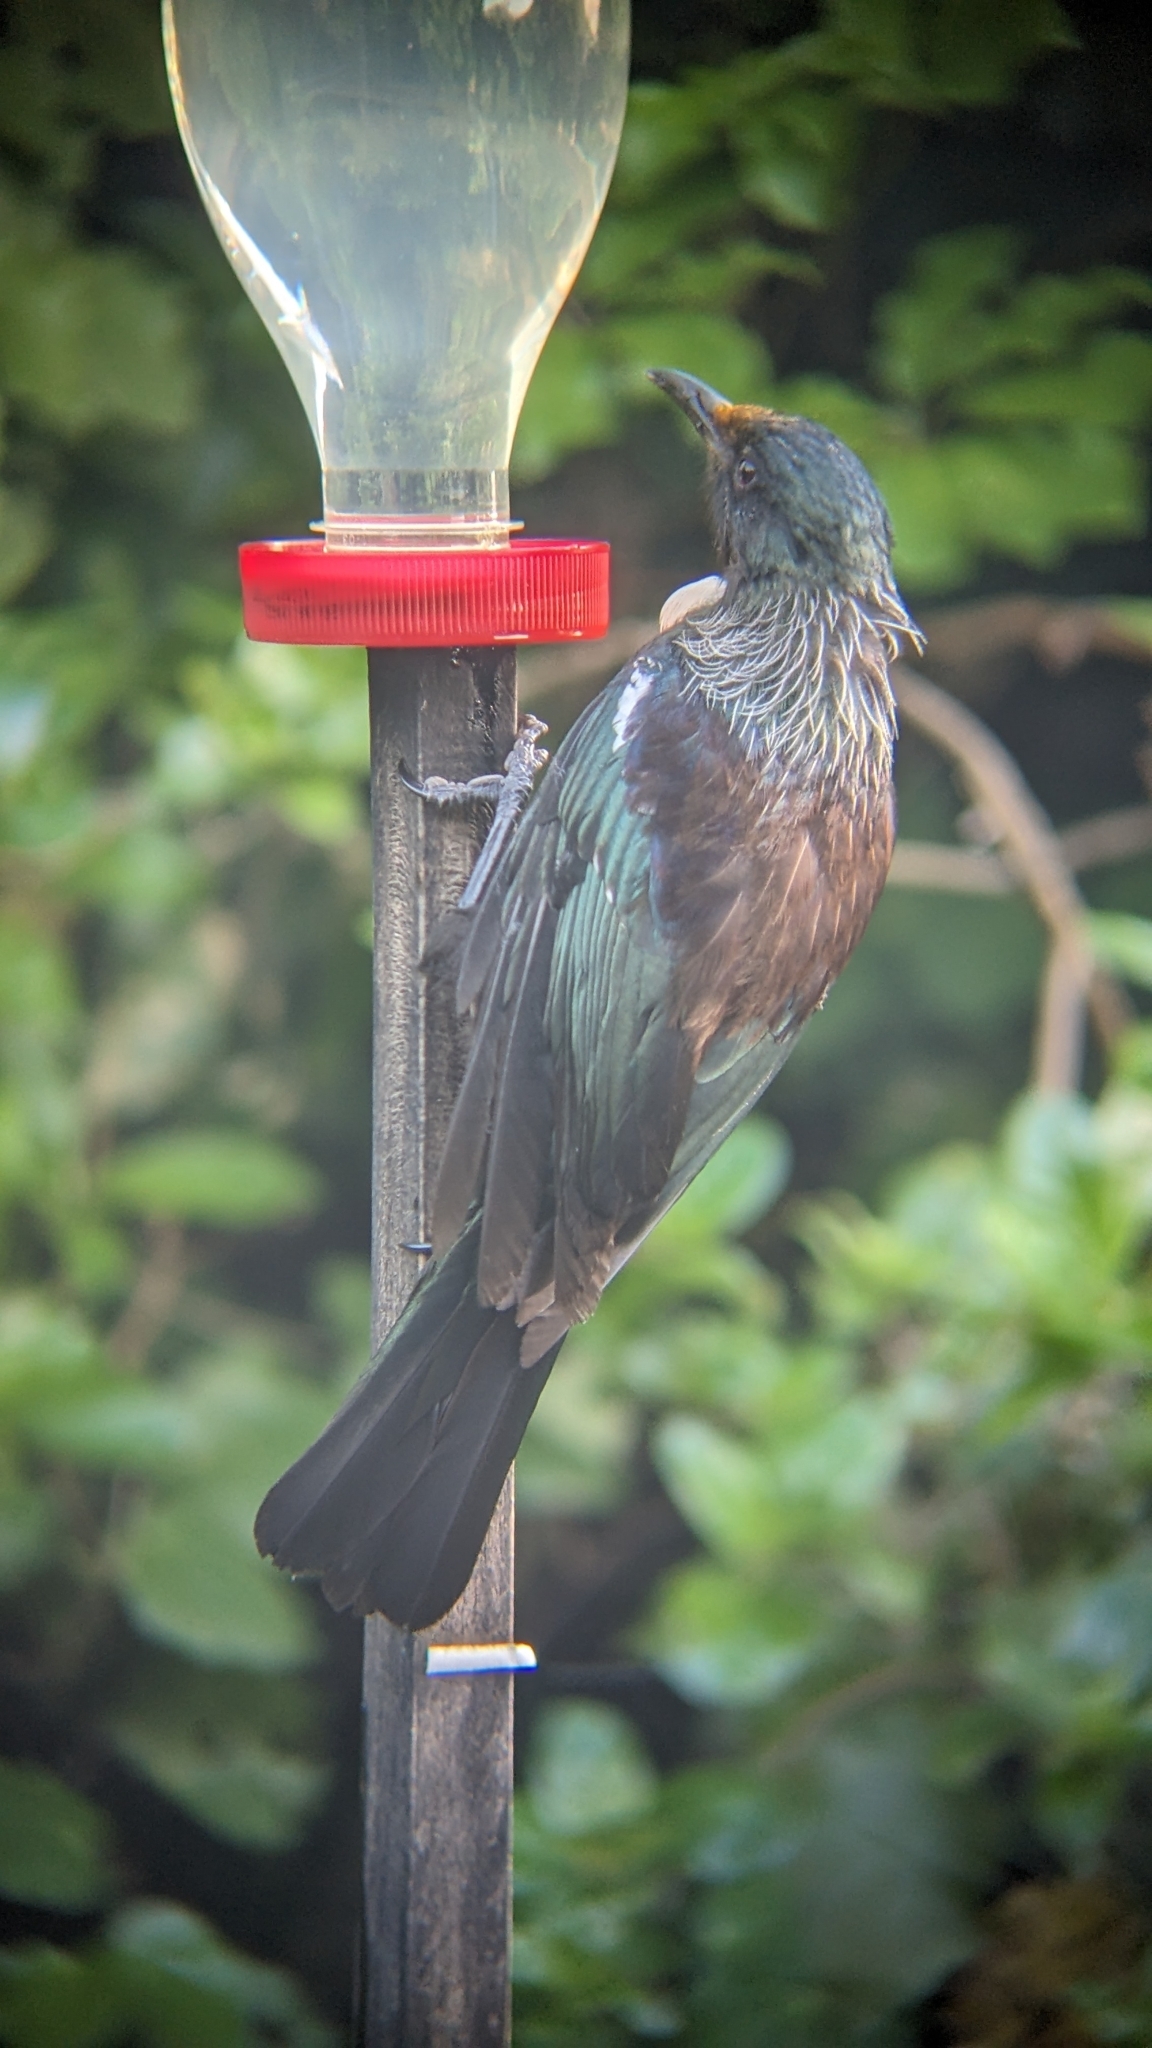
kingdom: Animalia
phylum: Chordata
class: Aves
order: Passeriformes
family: Meliphagidae
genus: Prosthemadera
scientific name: Prosthemadera novaeseelandiae
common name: Tui
